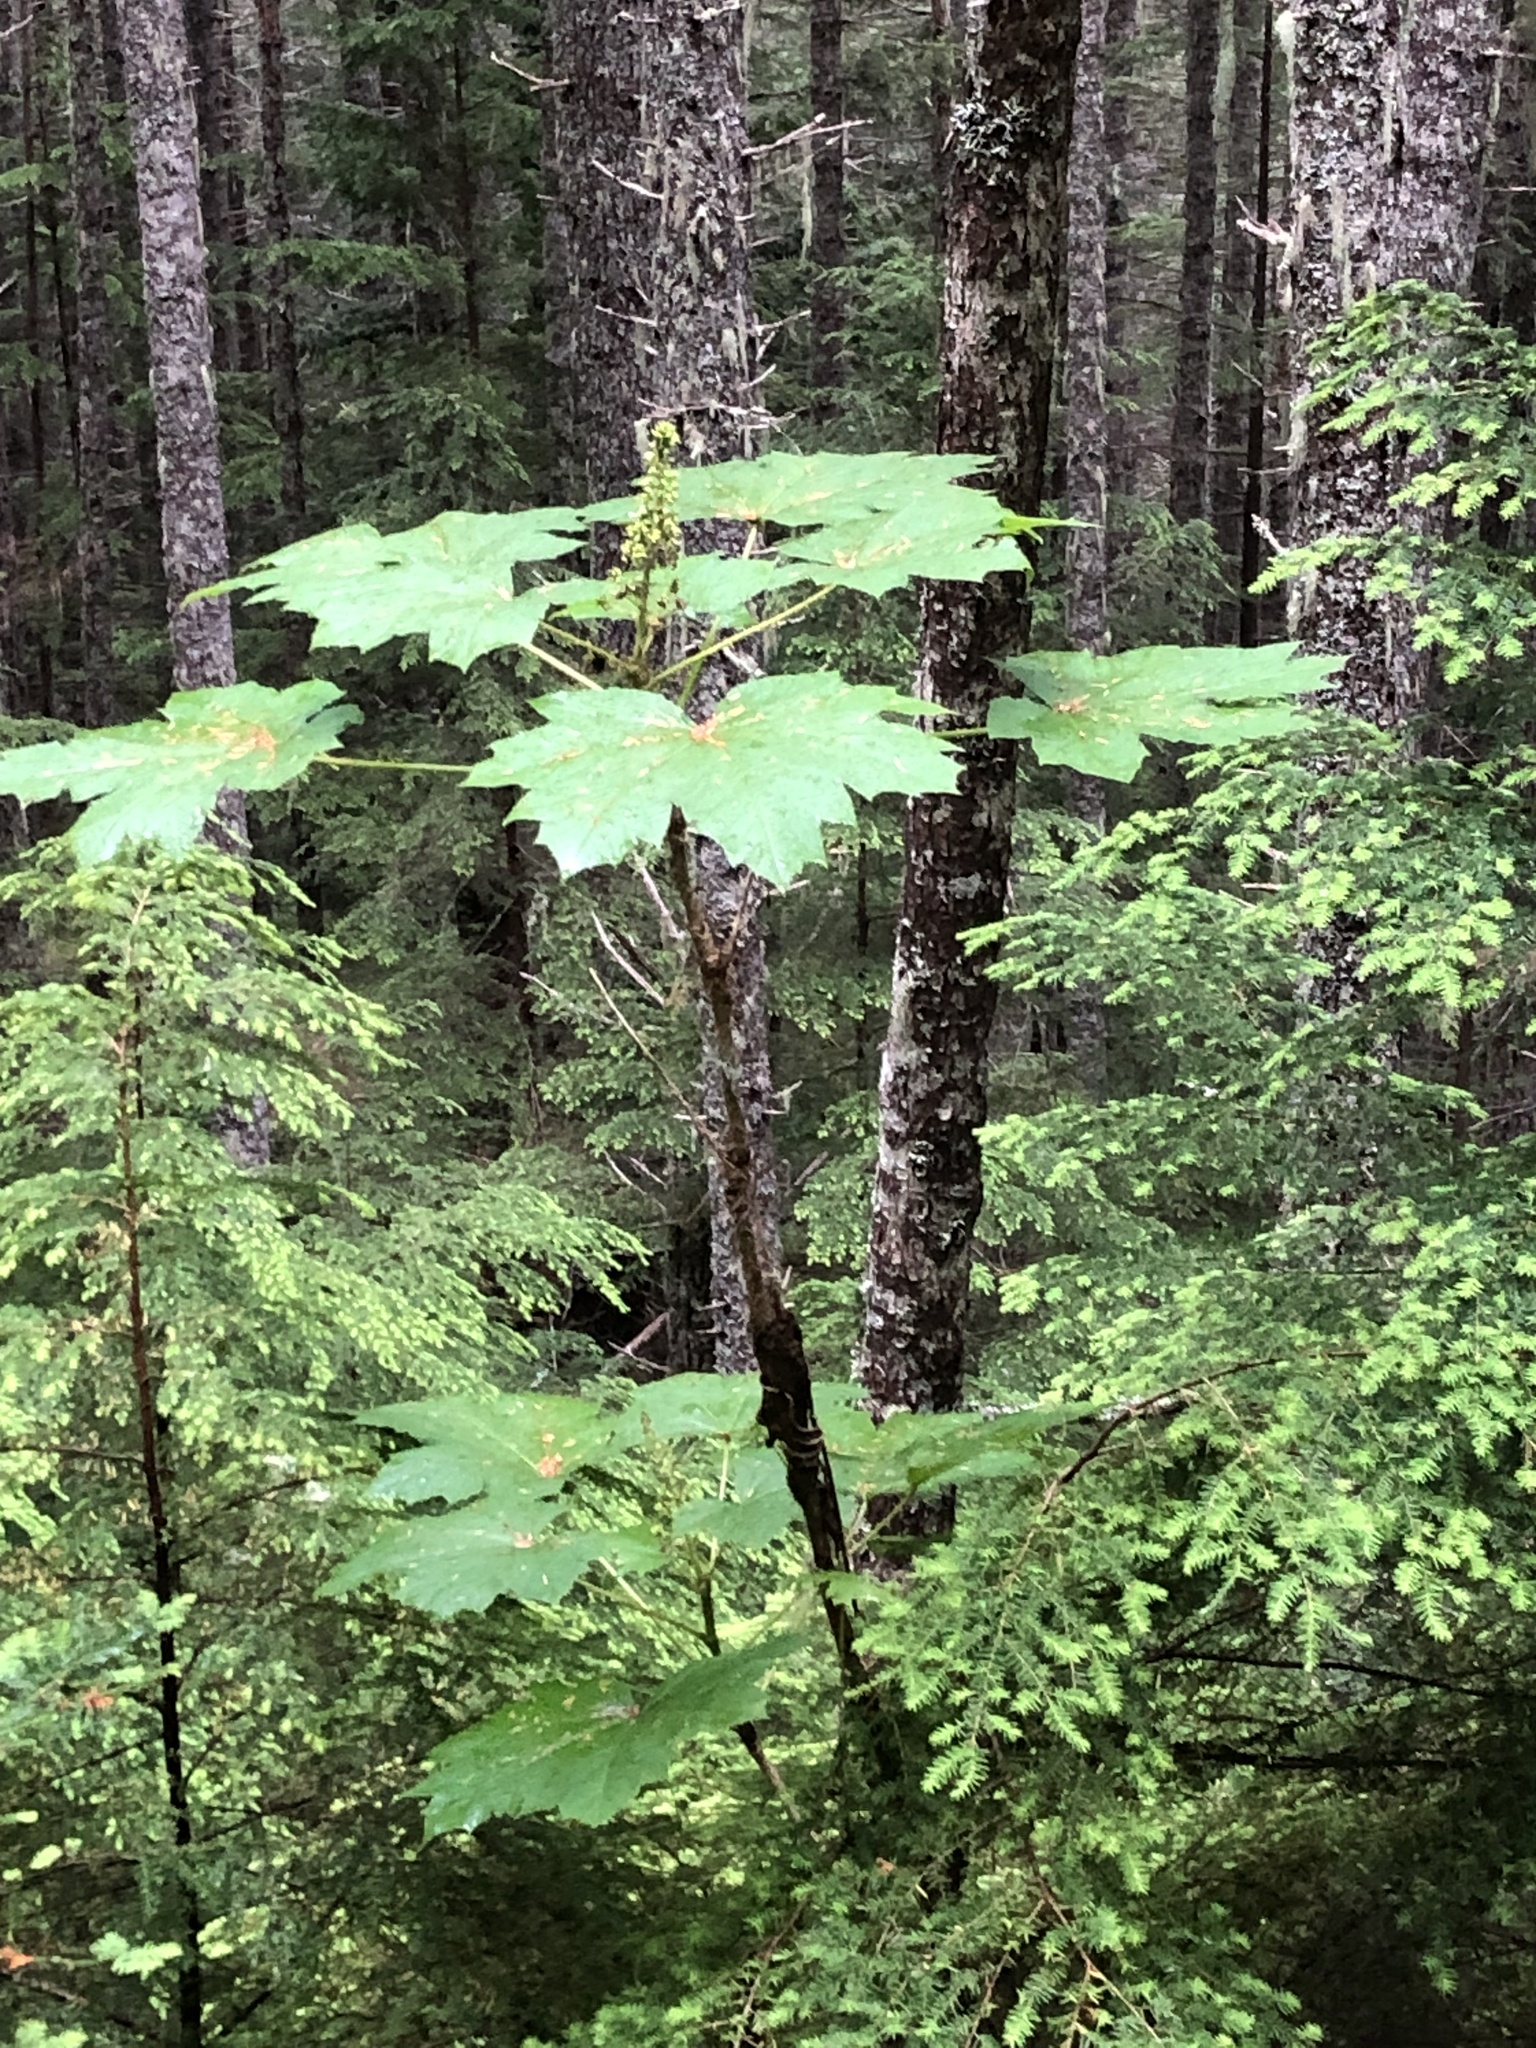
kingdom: Plantae
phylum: Tracheophyta
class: Magnoliopsida
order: Apiales
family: Araliaceae
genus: Oplopanax
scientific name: Oplopanax horridus
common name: Devil's walking-stick
